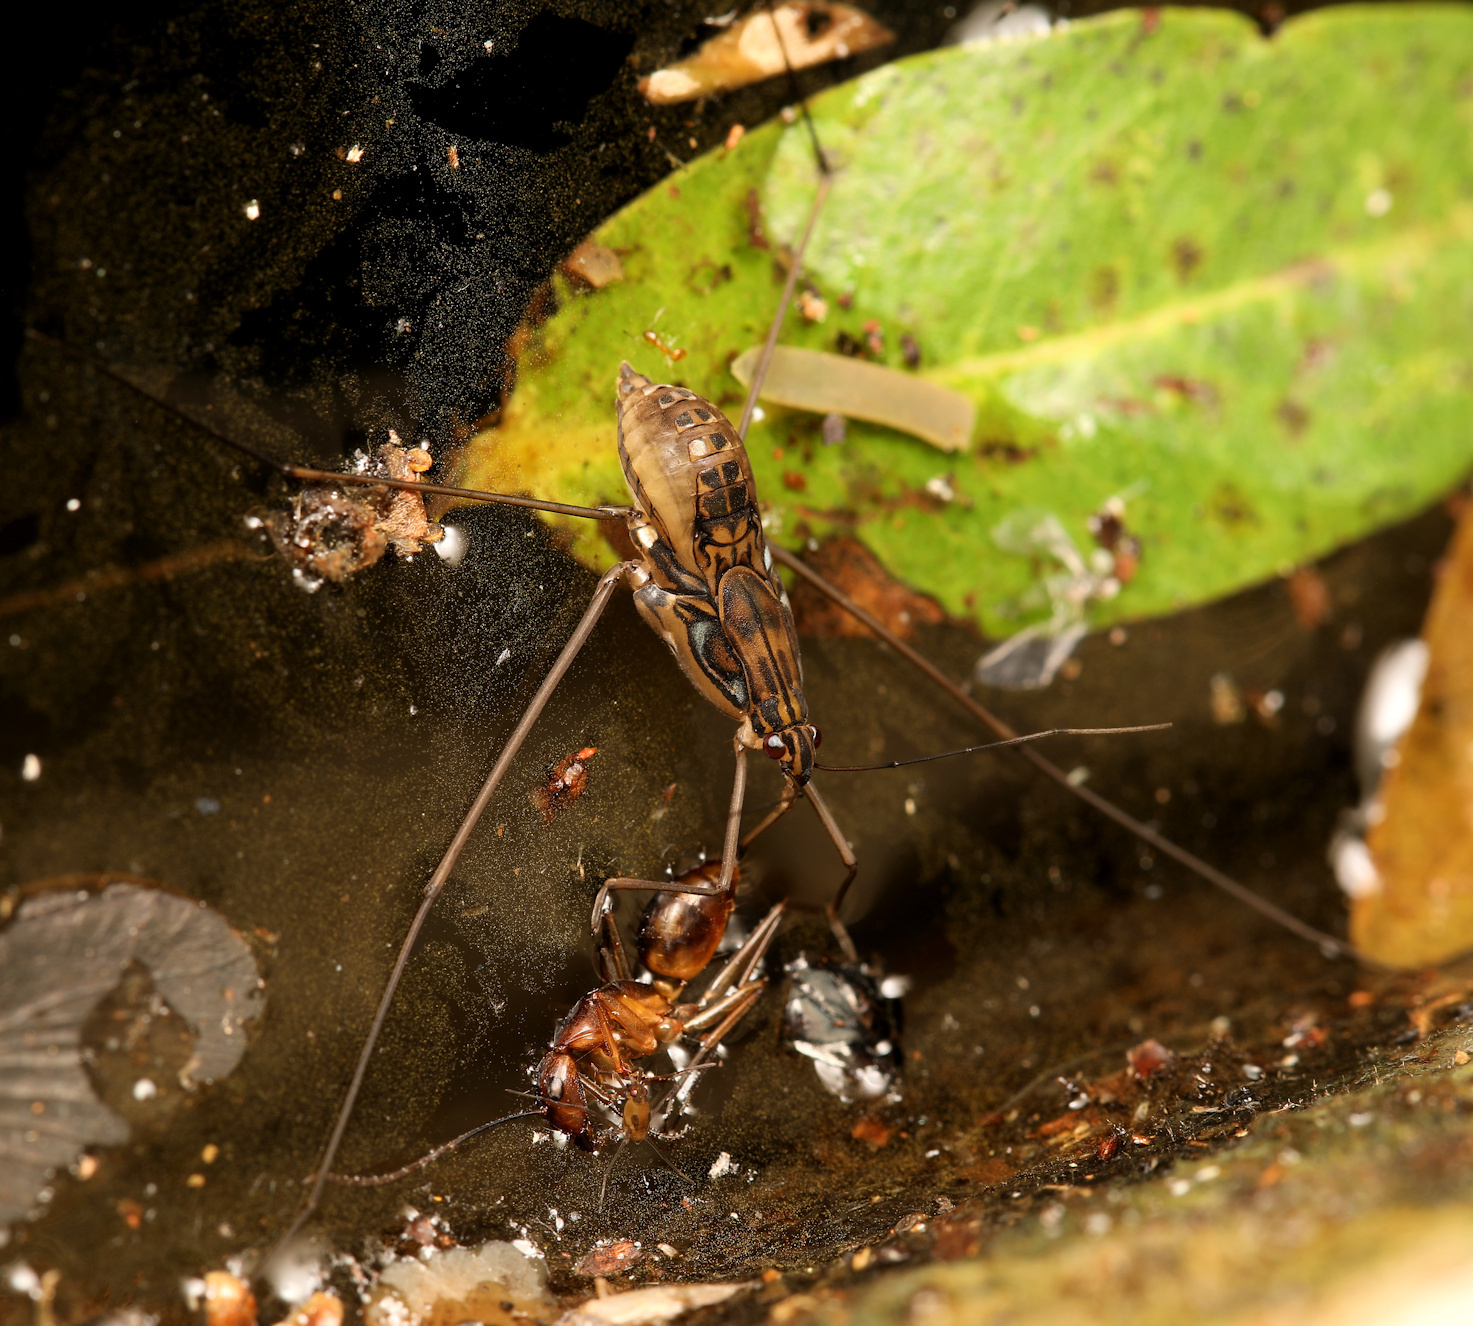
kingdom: Animalia
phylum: Arthropoda
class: Insecta
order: Hemiptera
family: Gerridae
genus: Tenagogonus
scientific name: Tenagogonus zambezinus
